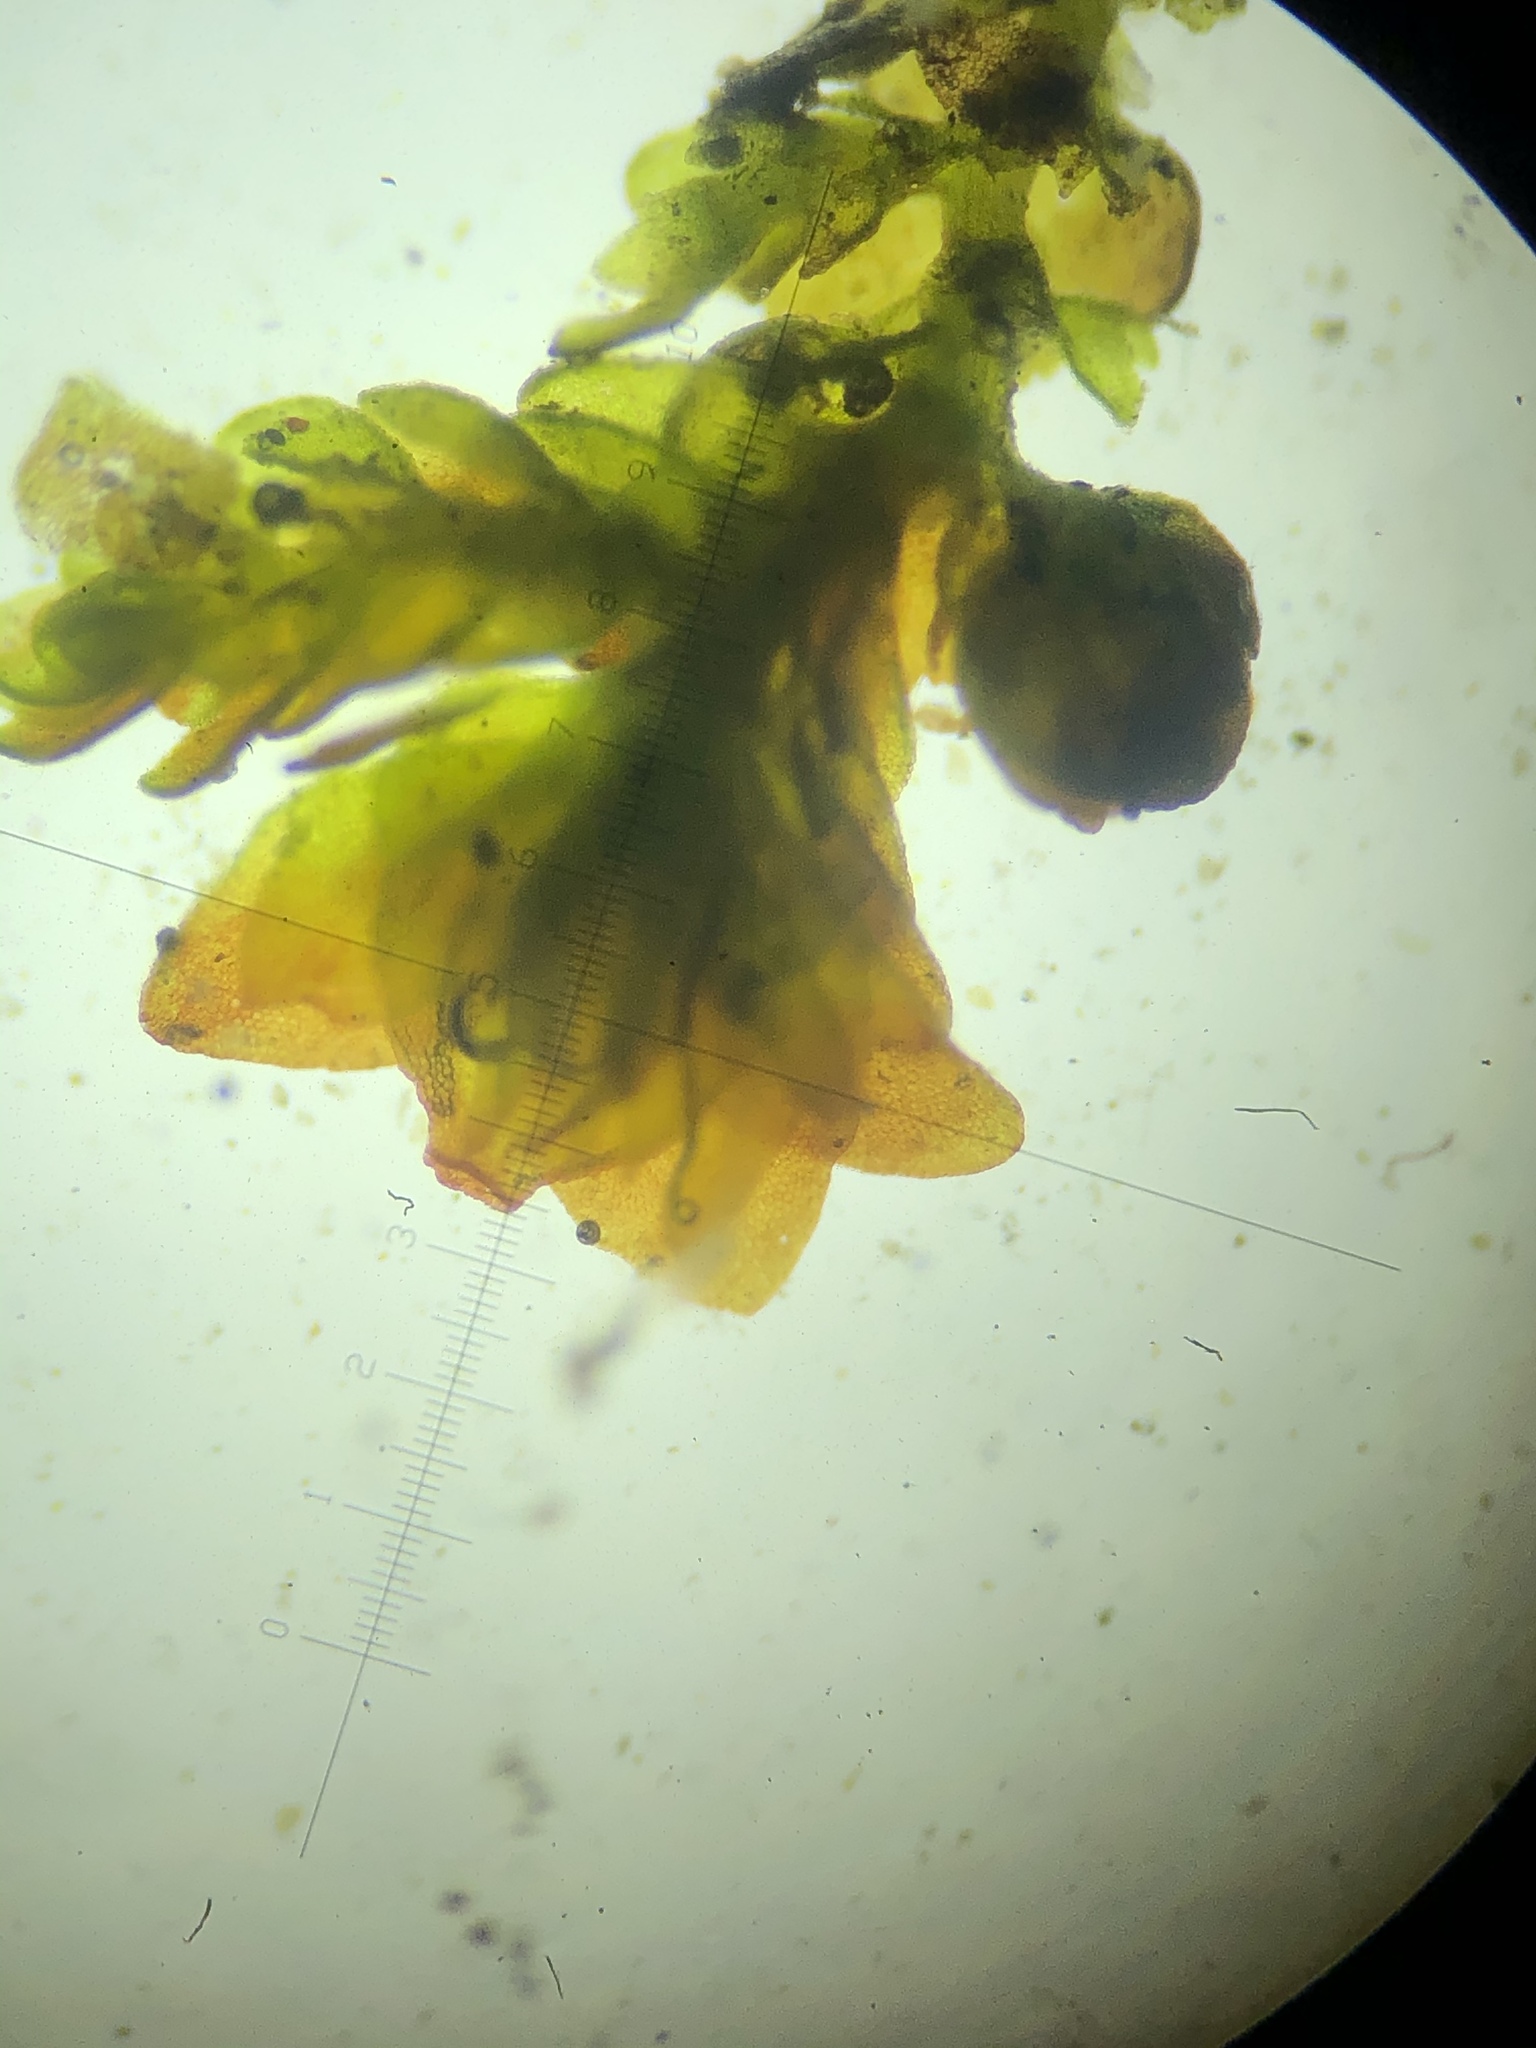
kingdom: Plantae
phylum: Marchantiophyta
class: Jungermanniopsida
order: Porellales
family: Frullaniaceae
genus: Frullania
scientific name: Frullania catalinae
